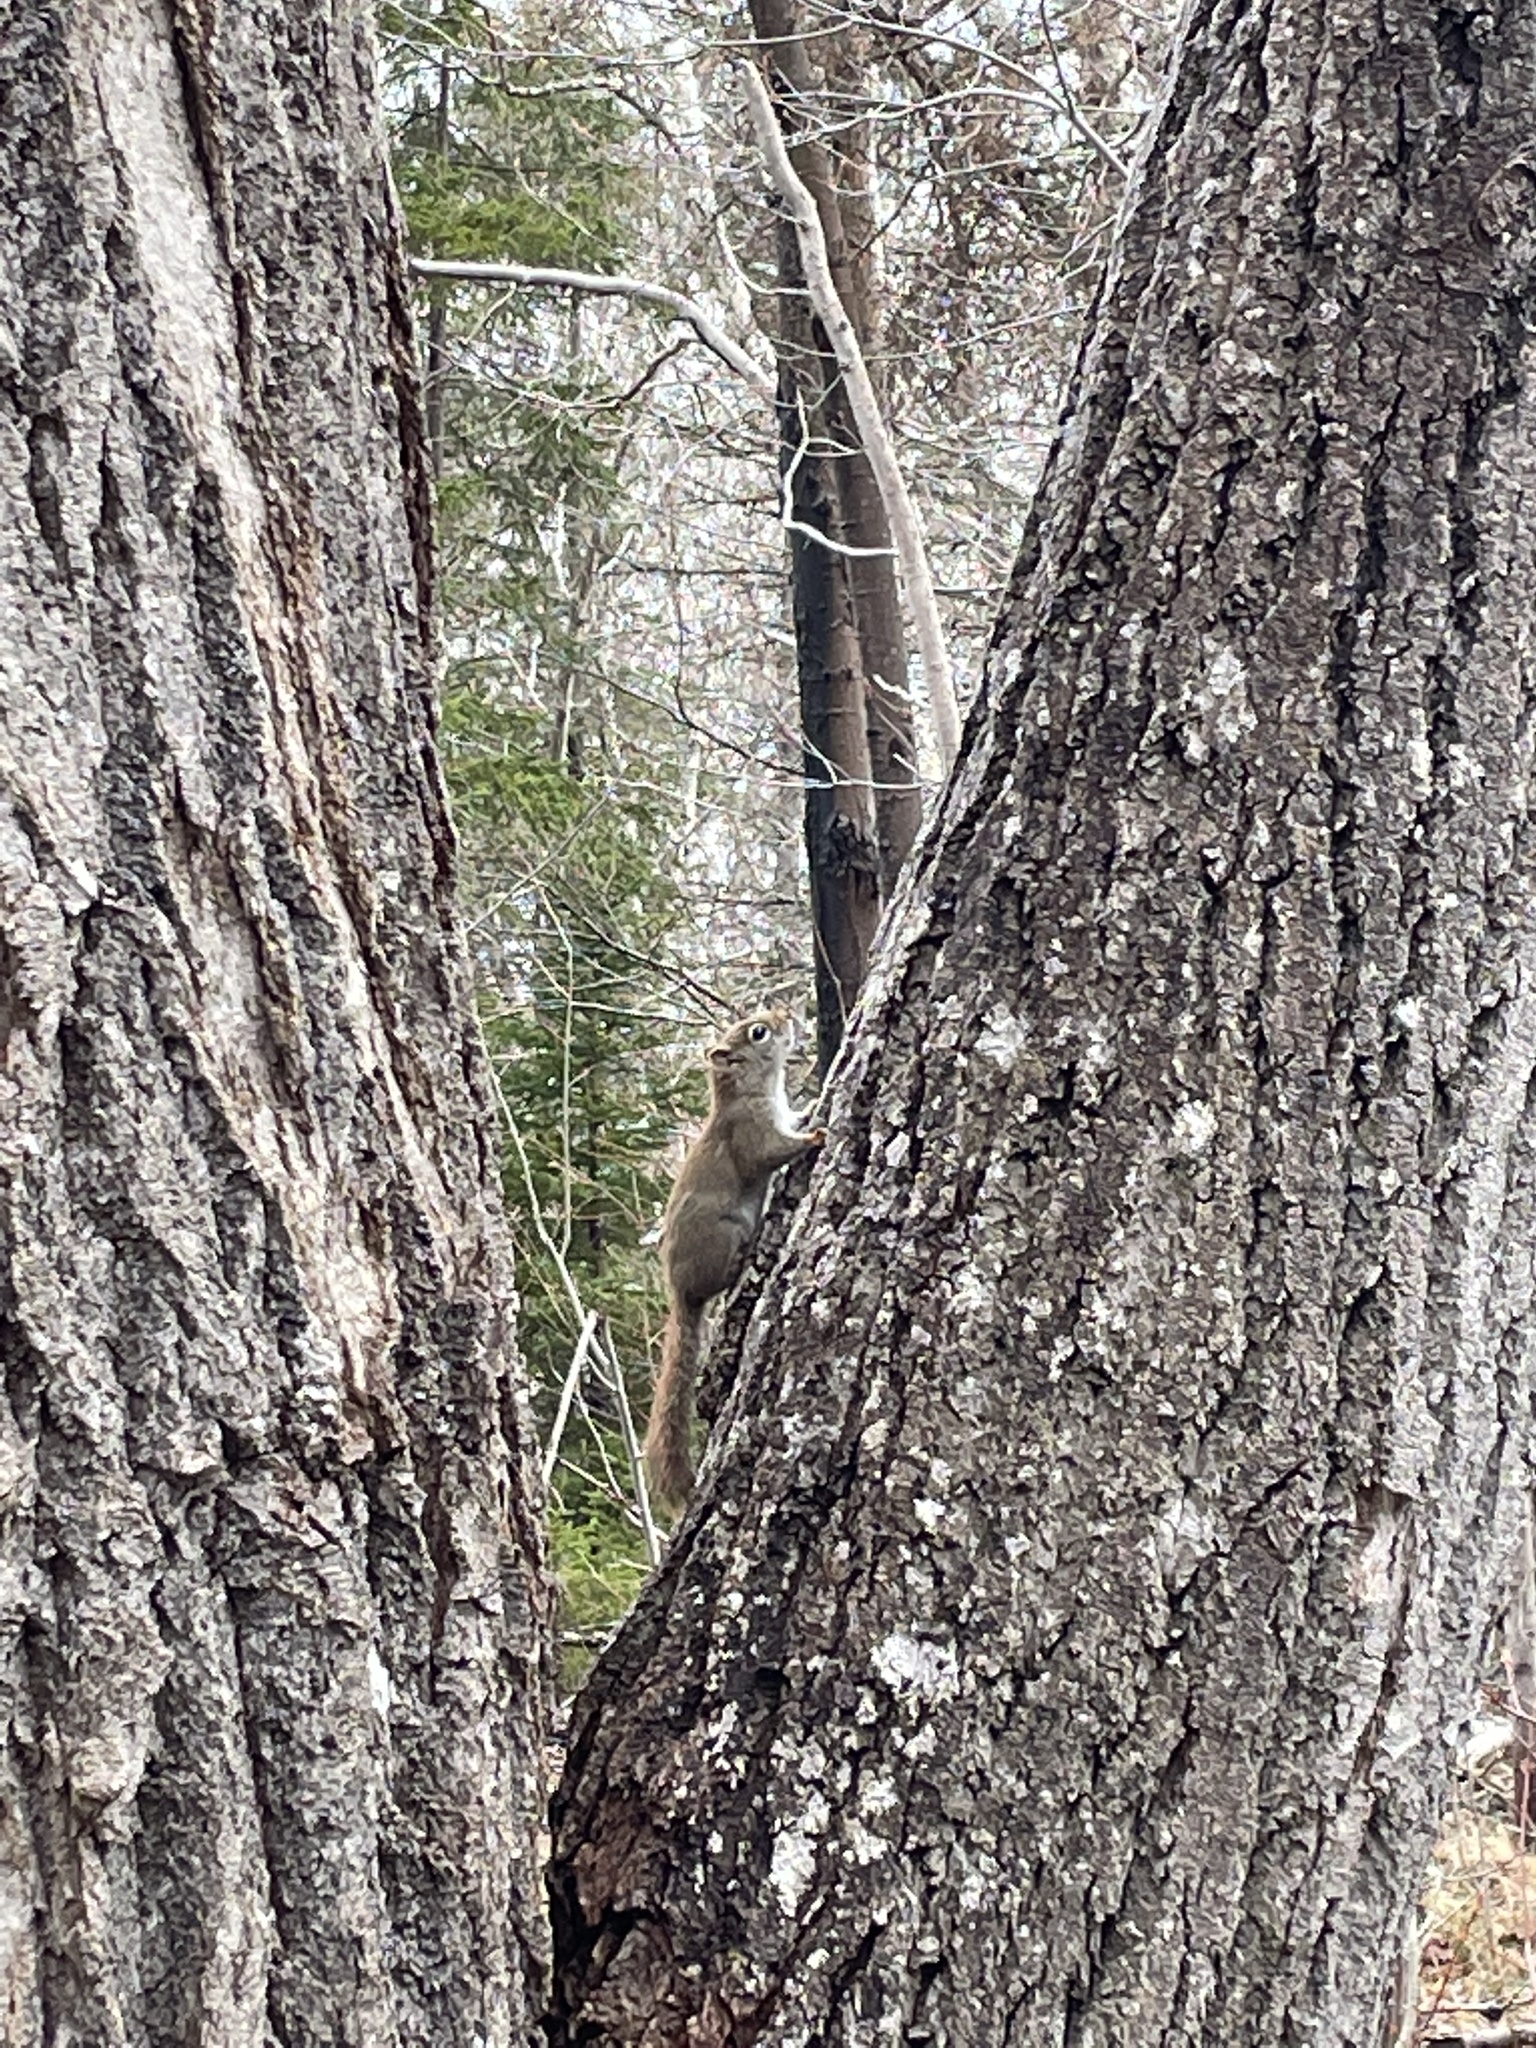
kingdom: Animalia
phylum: Chordata
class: Mammalia
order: Rodentia
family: Sciuridae
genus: Tamiasciurus
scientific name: Tamiasciurus hudsonicus
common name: Red squirrel
